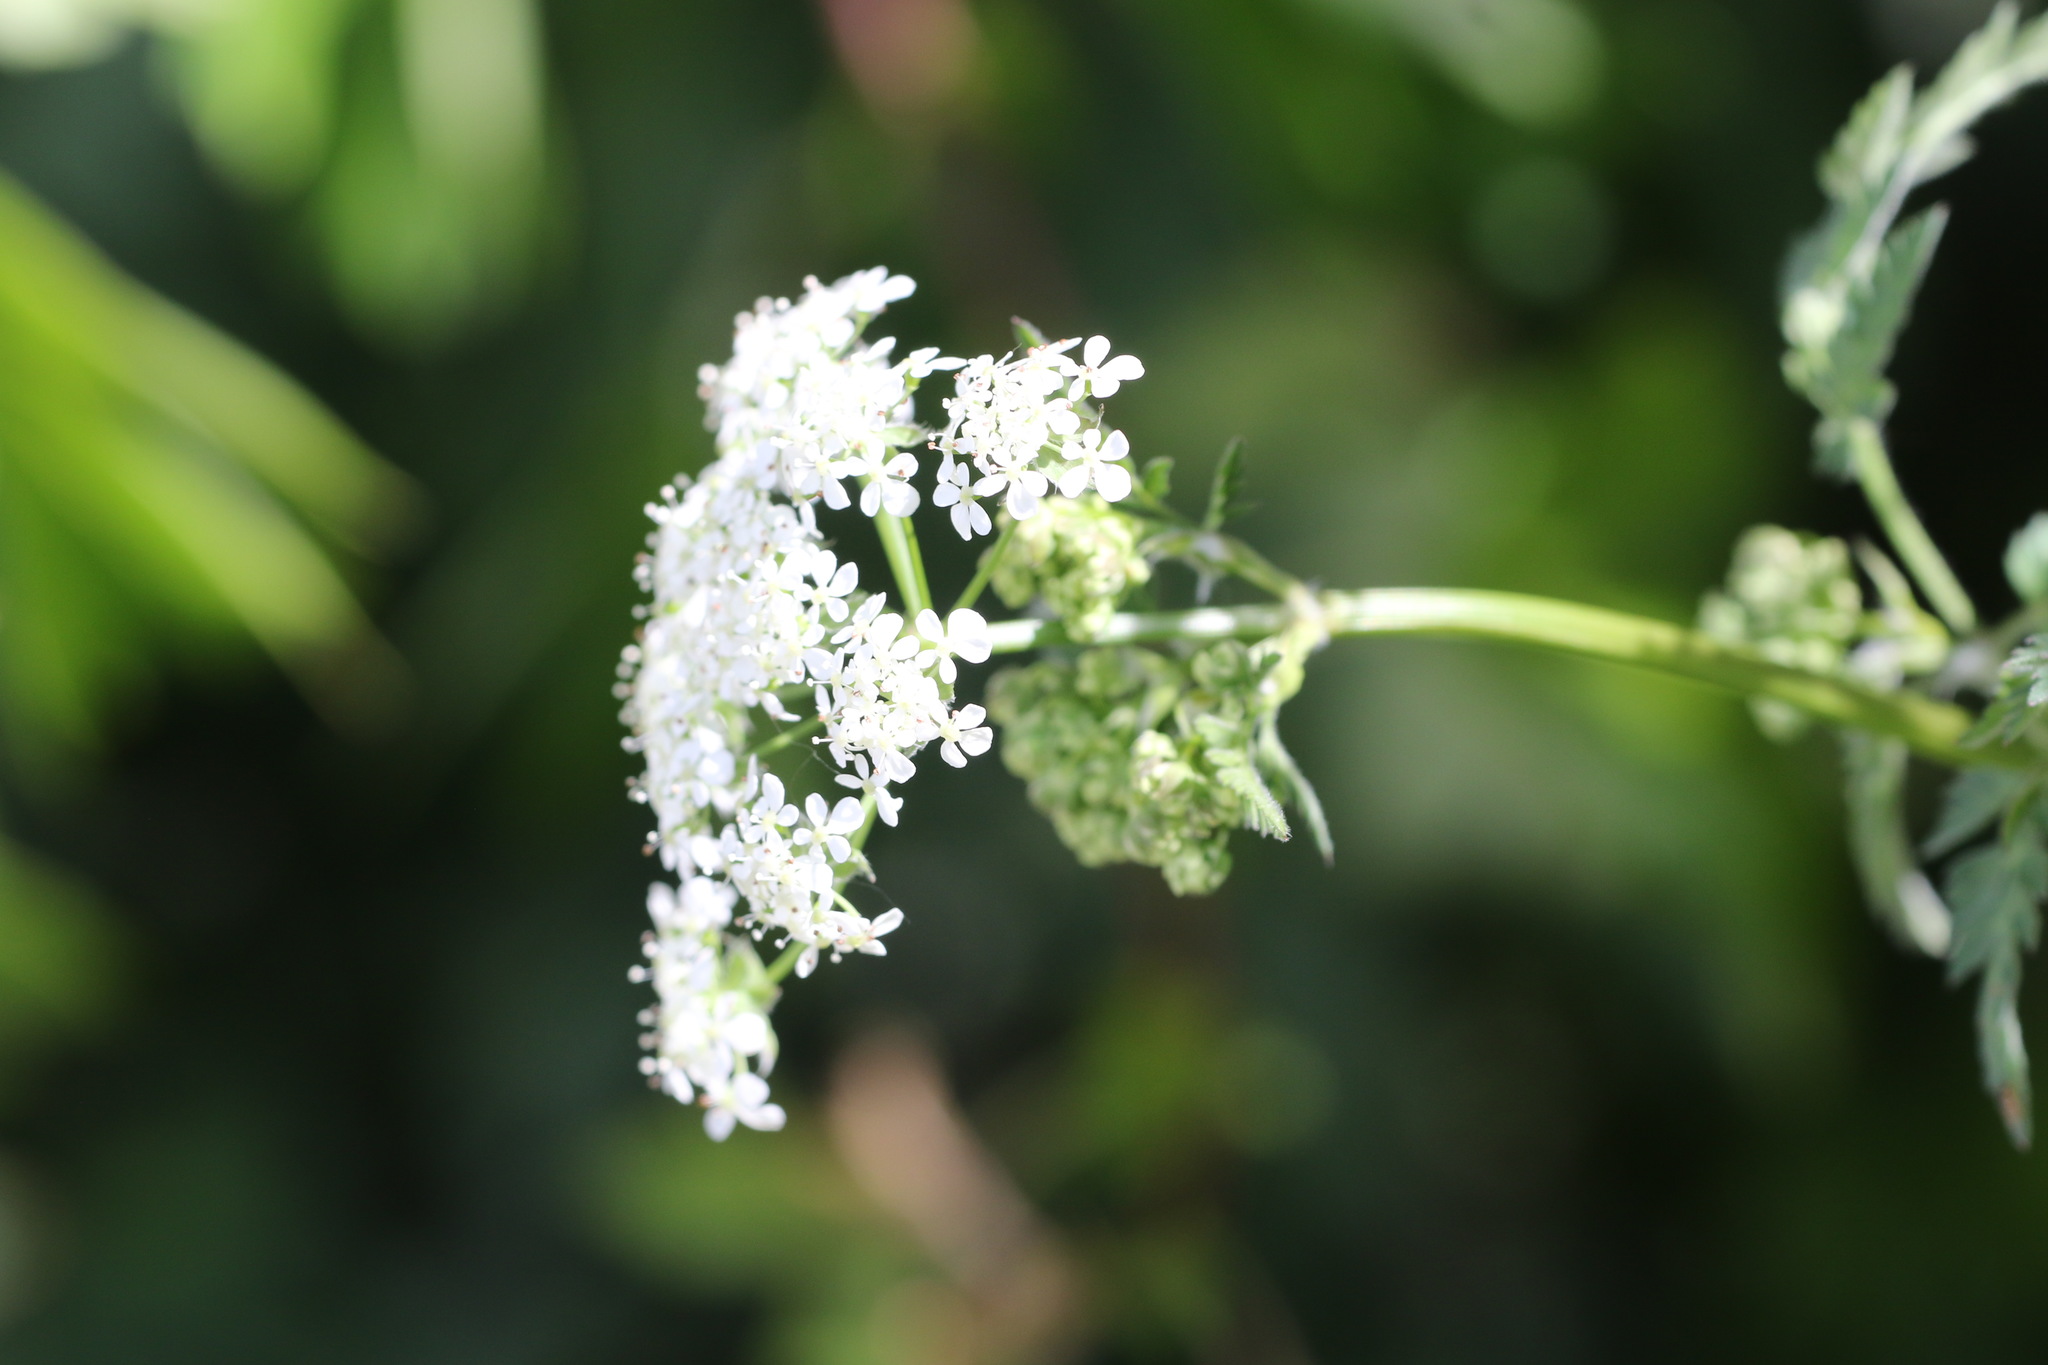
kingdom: Plantae
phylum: Tracheophyta
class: Magnoliopsida
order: Apiales
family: Apiaceae
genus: Anthriscus
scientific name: Anthriscus sylvestris
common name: Cow parsley
